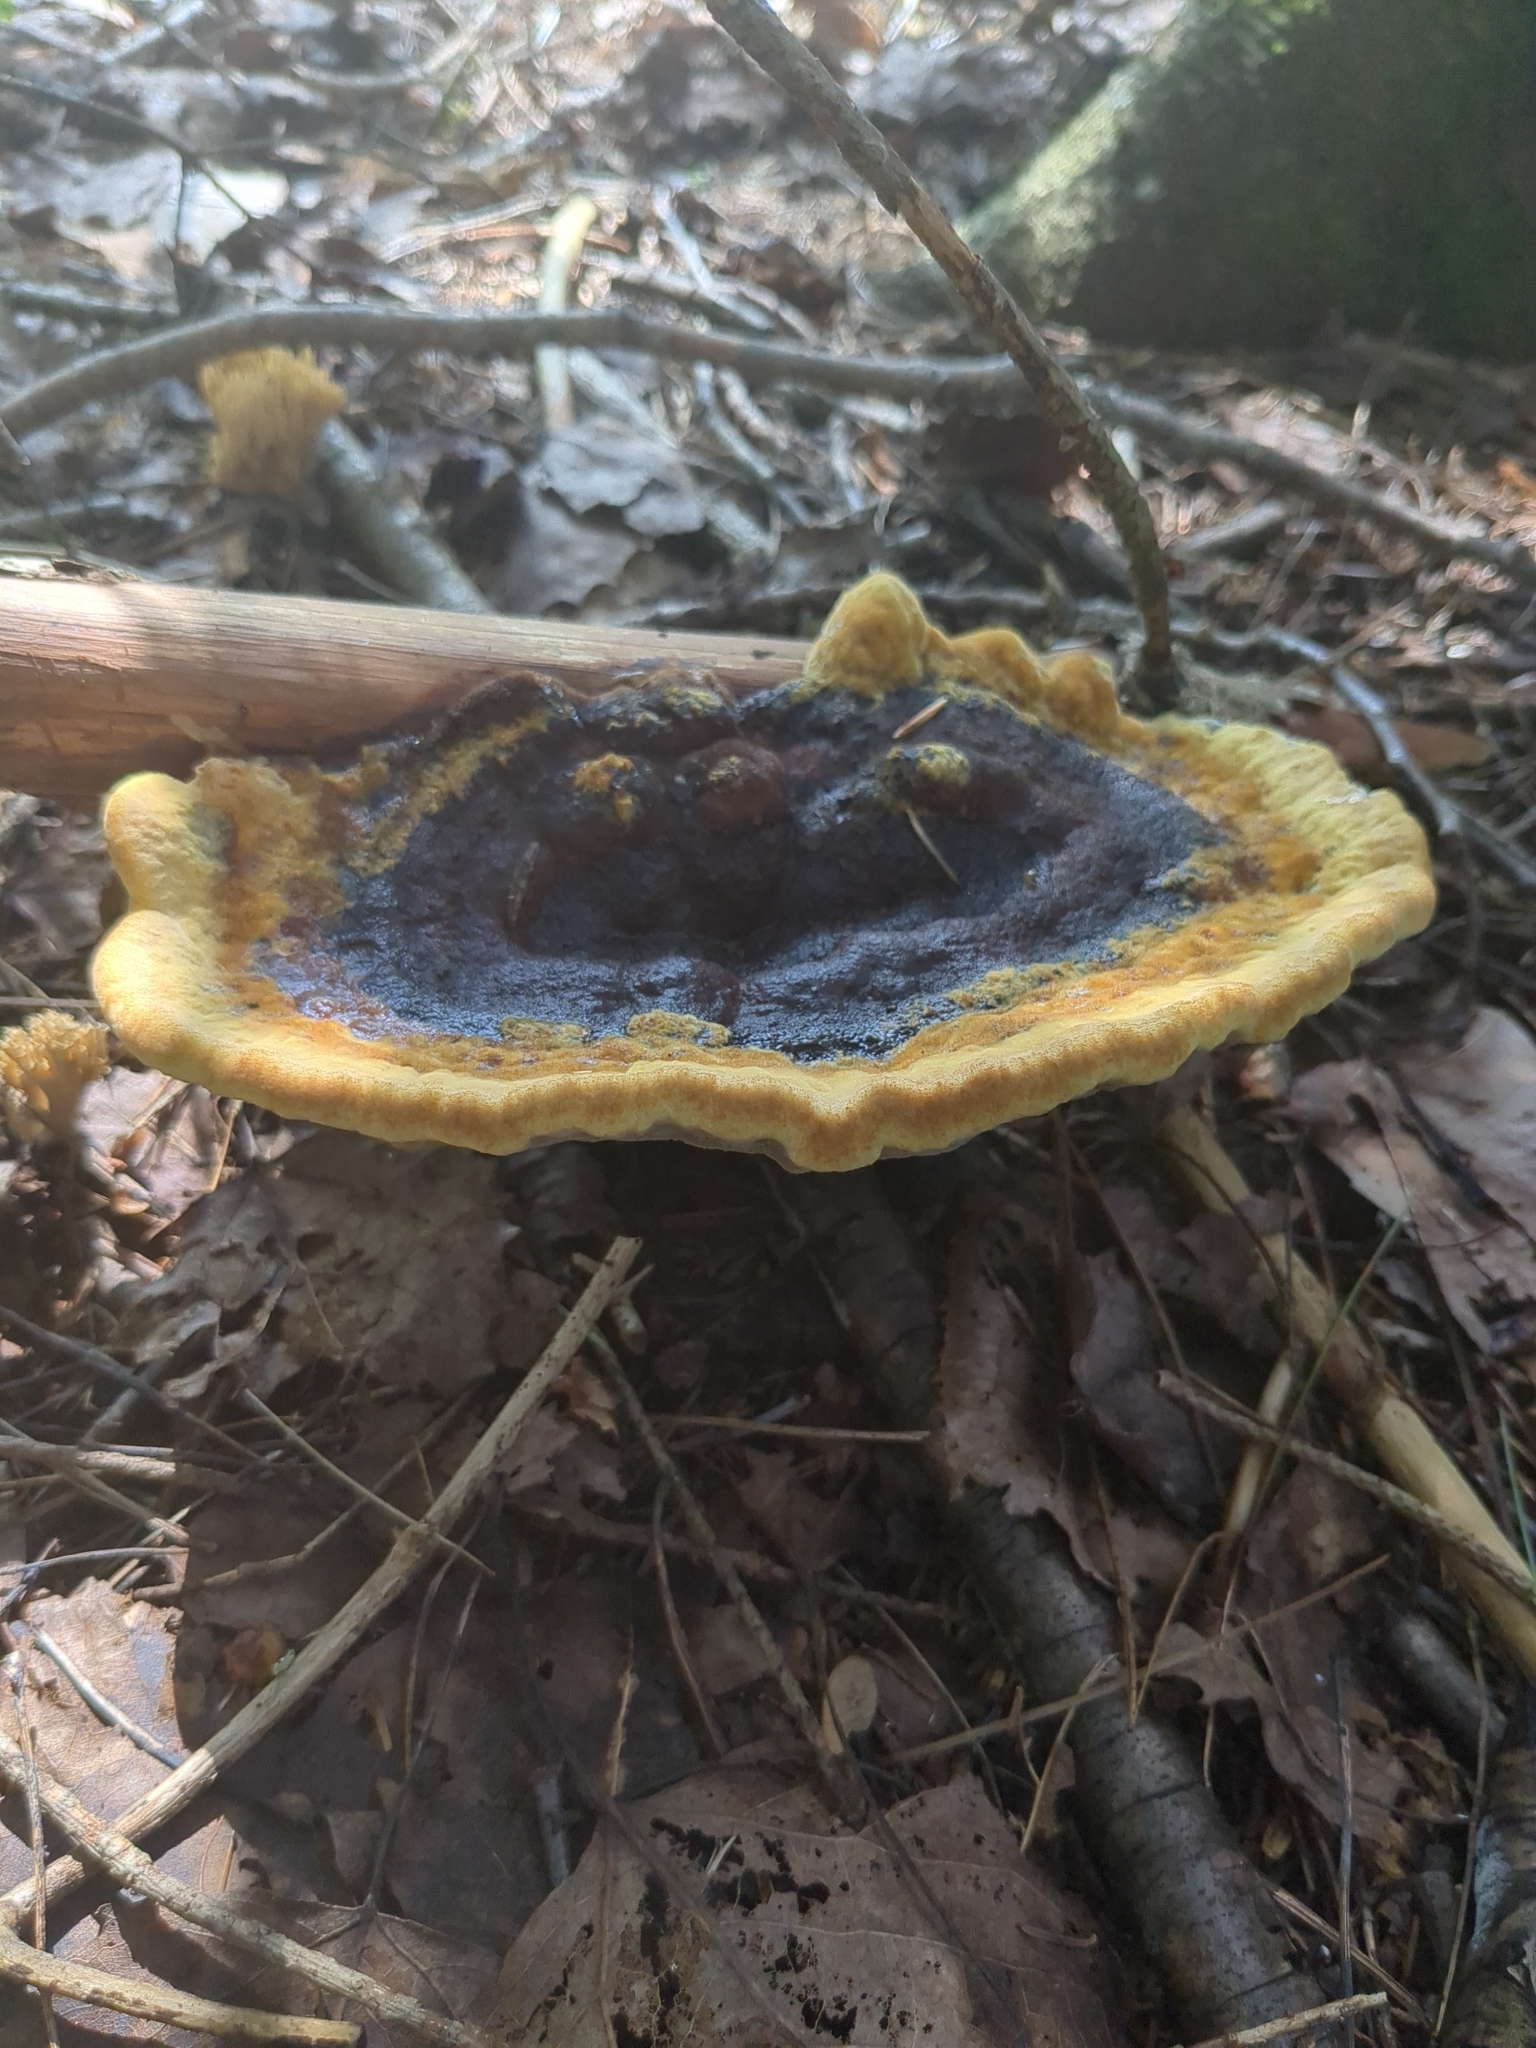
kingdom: Fungi
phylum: Basidiomycota
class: Agaricomycetes
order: Polyporales
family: Laetiporaceae
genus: Phaeolus
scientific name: Phaeolus schweinitzii
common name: Dyer's mazegill
